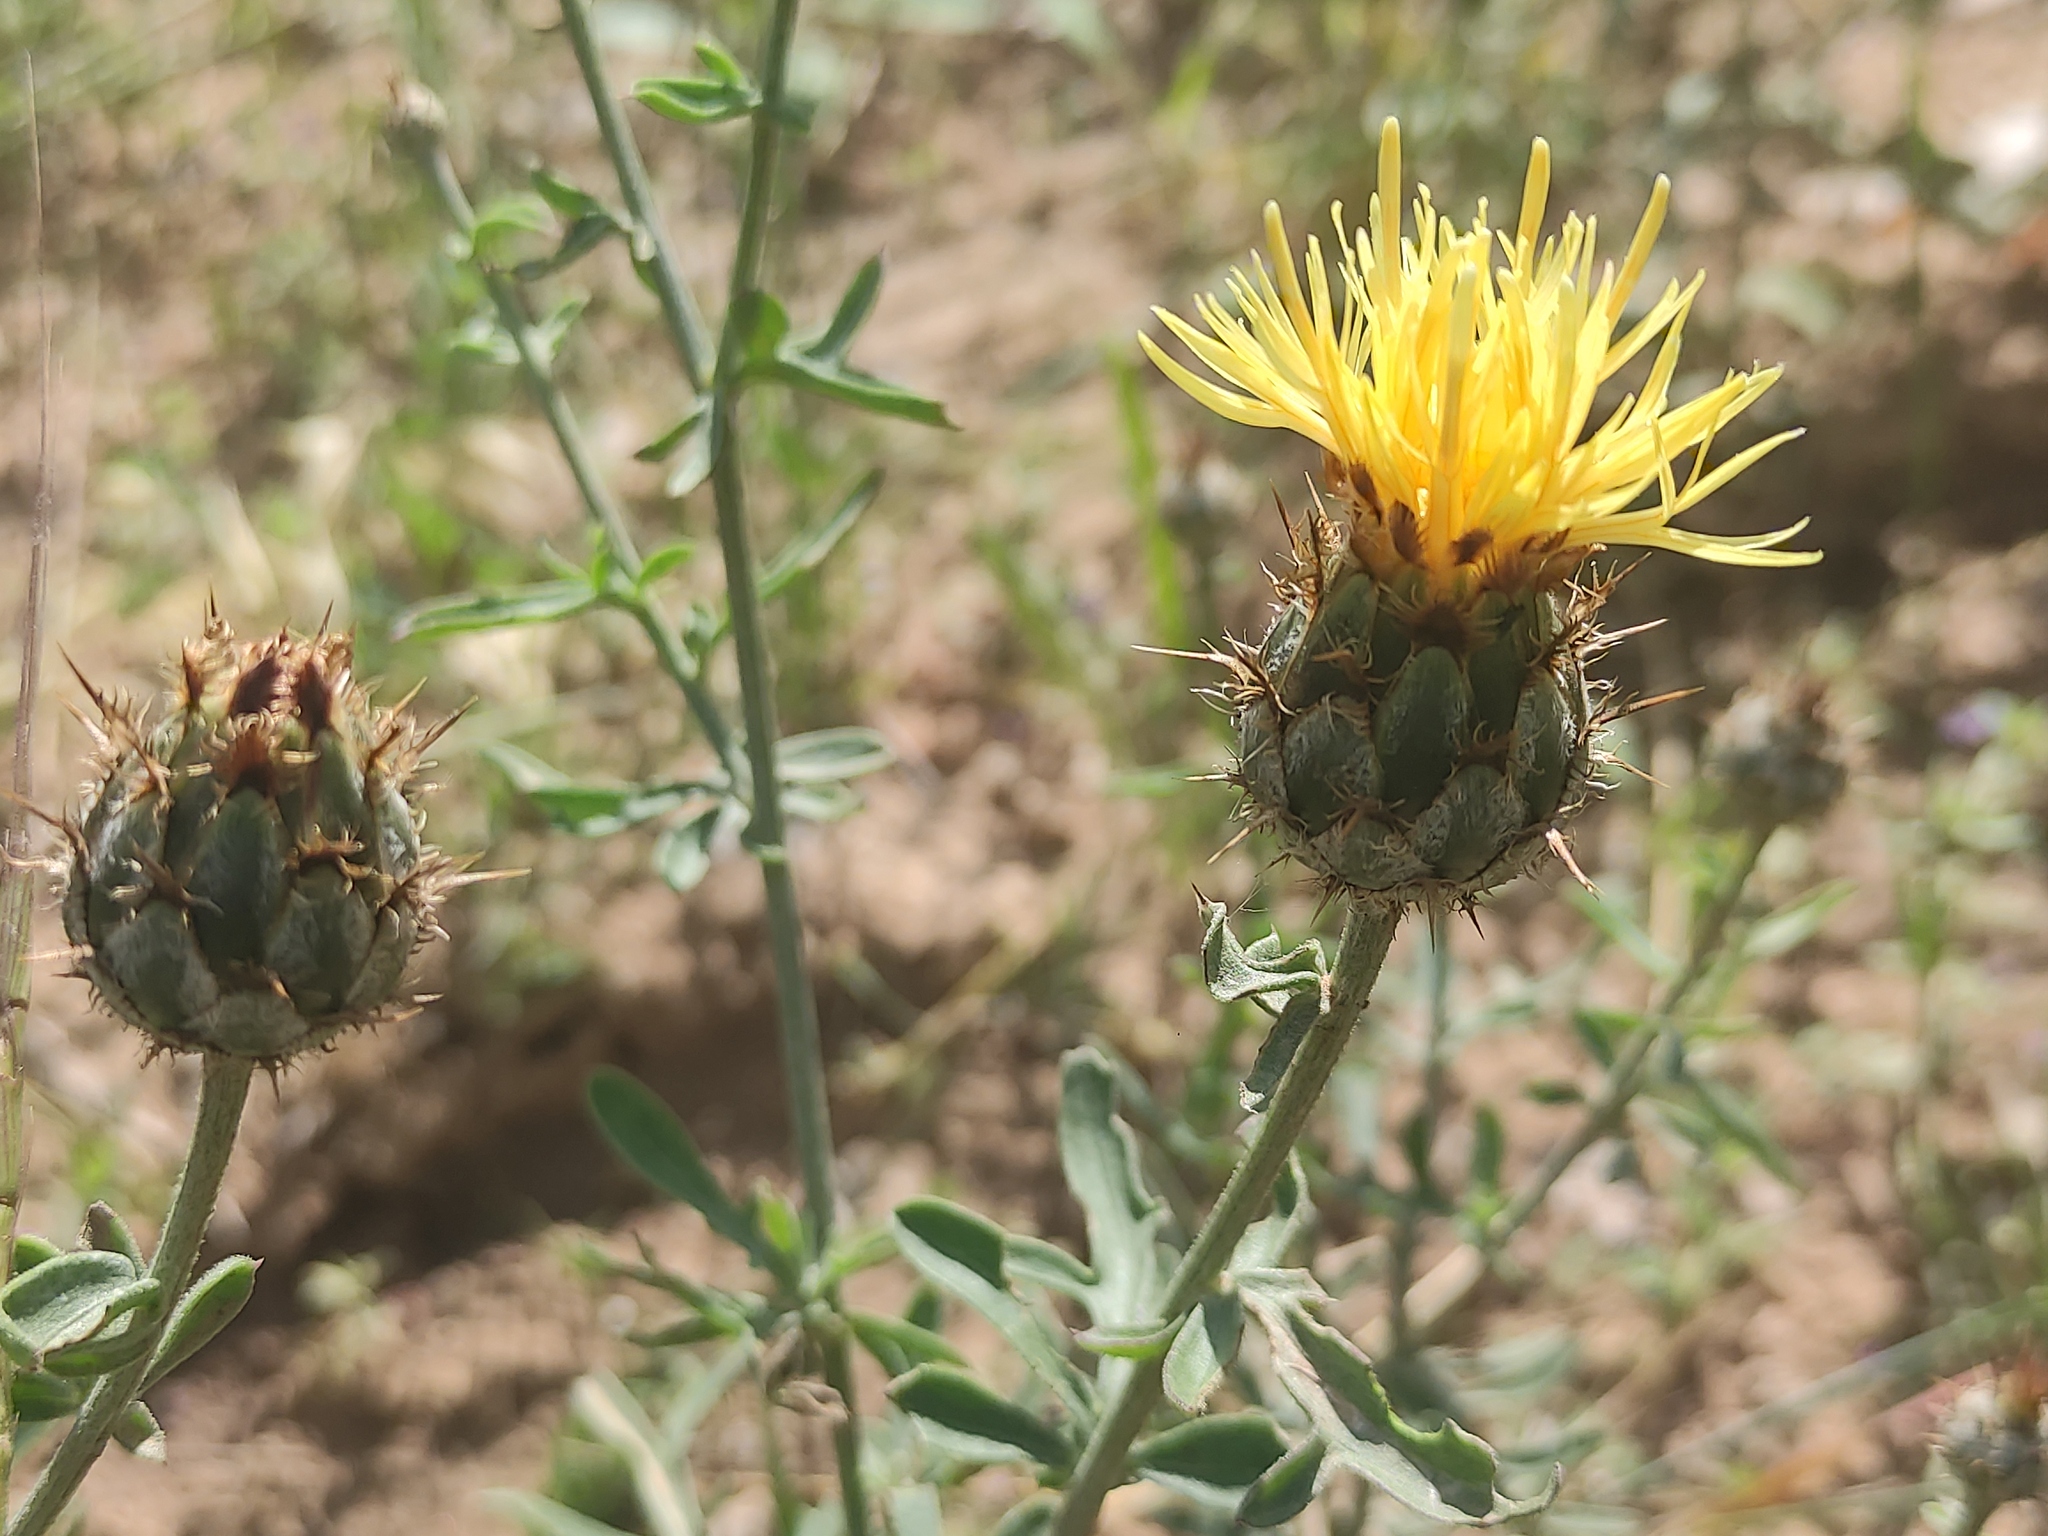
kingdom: Plantae
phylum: Tracheophyta
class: Magnoliopsida
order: Asterales
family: Asteraceae
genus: Centaurea
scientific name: Centaurea collina
